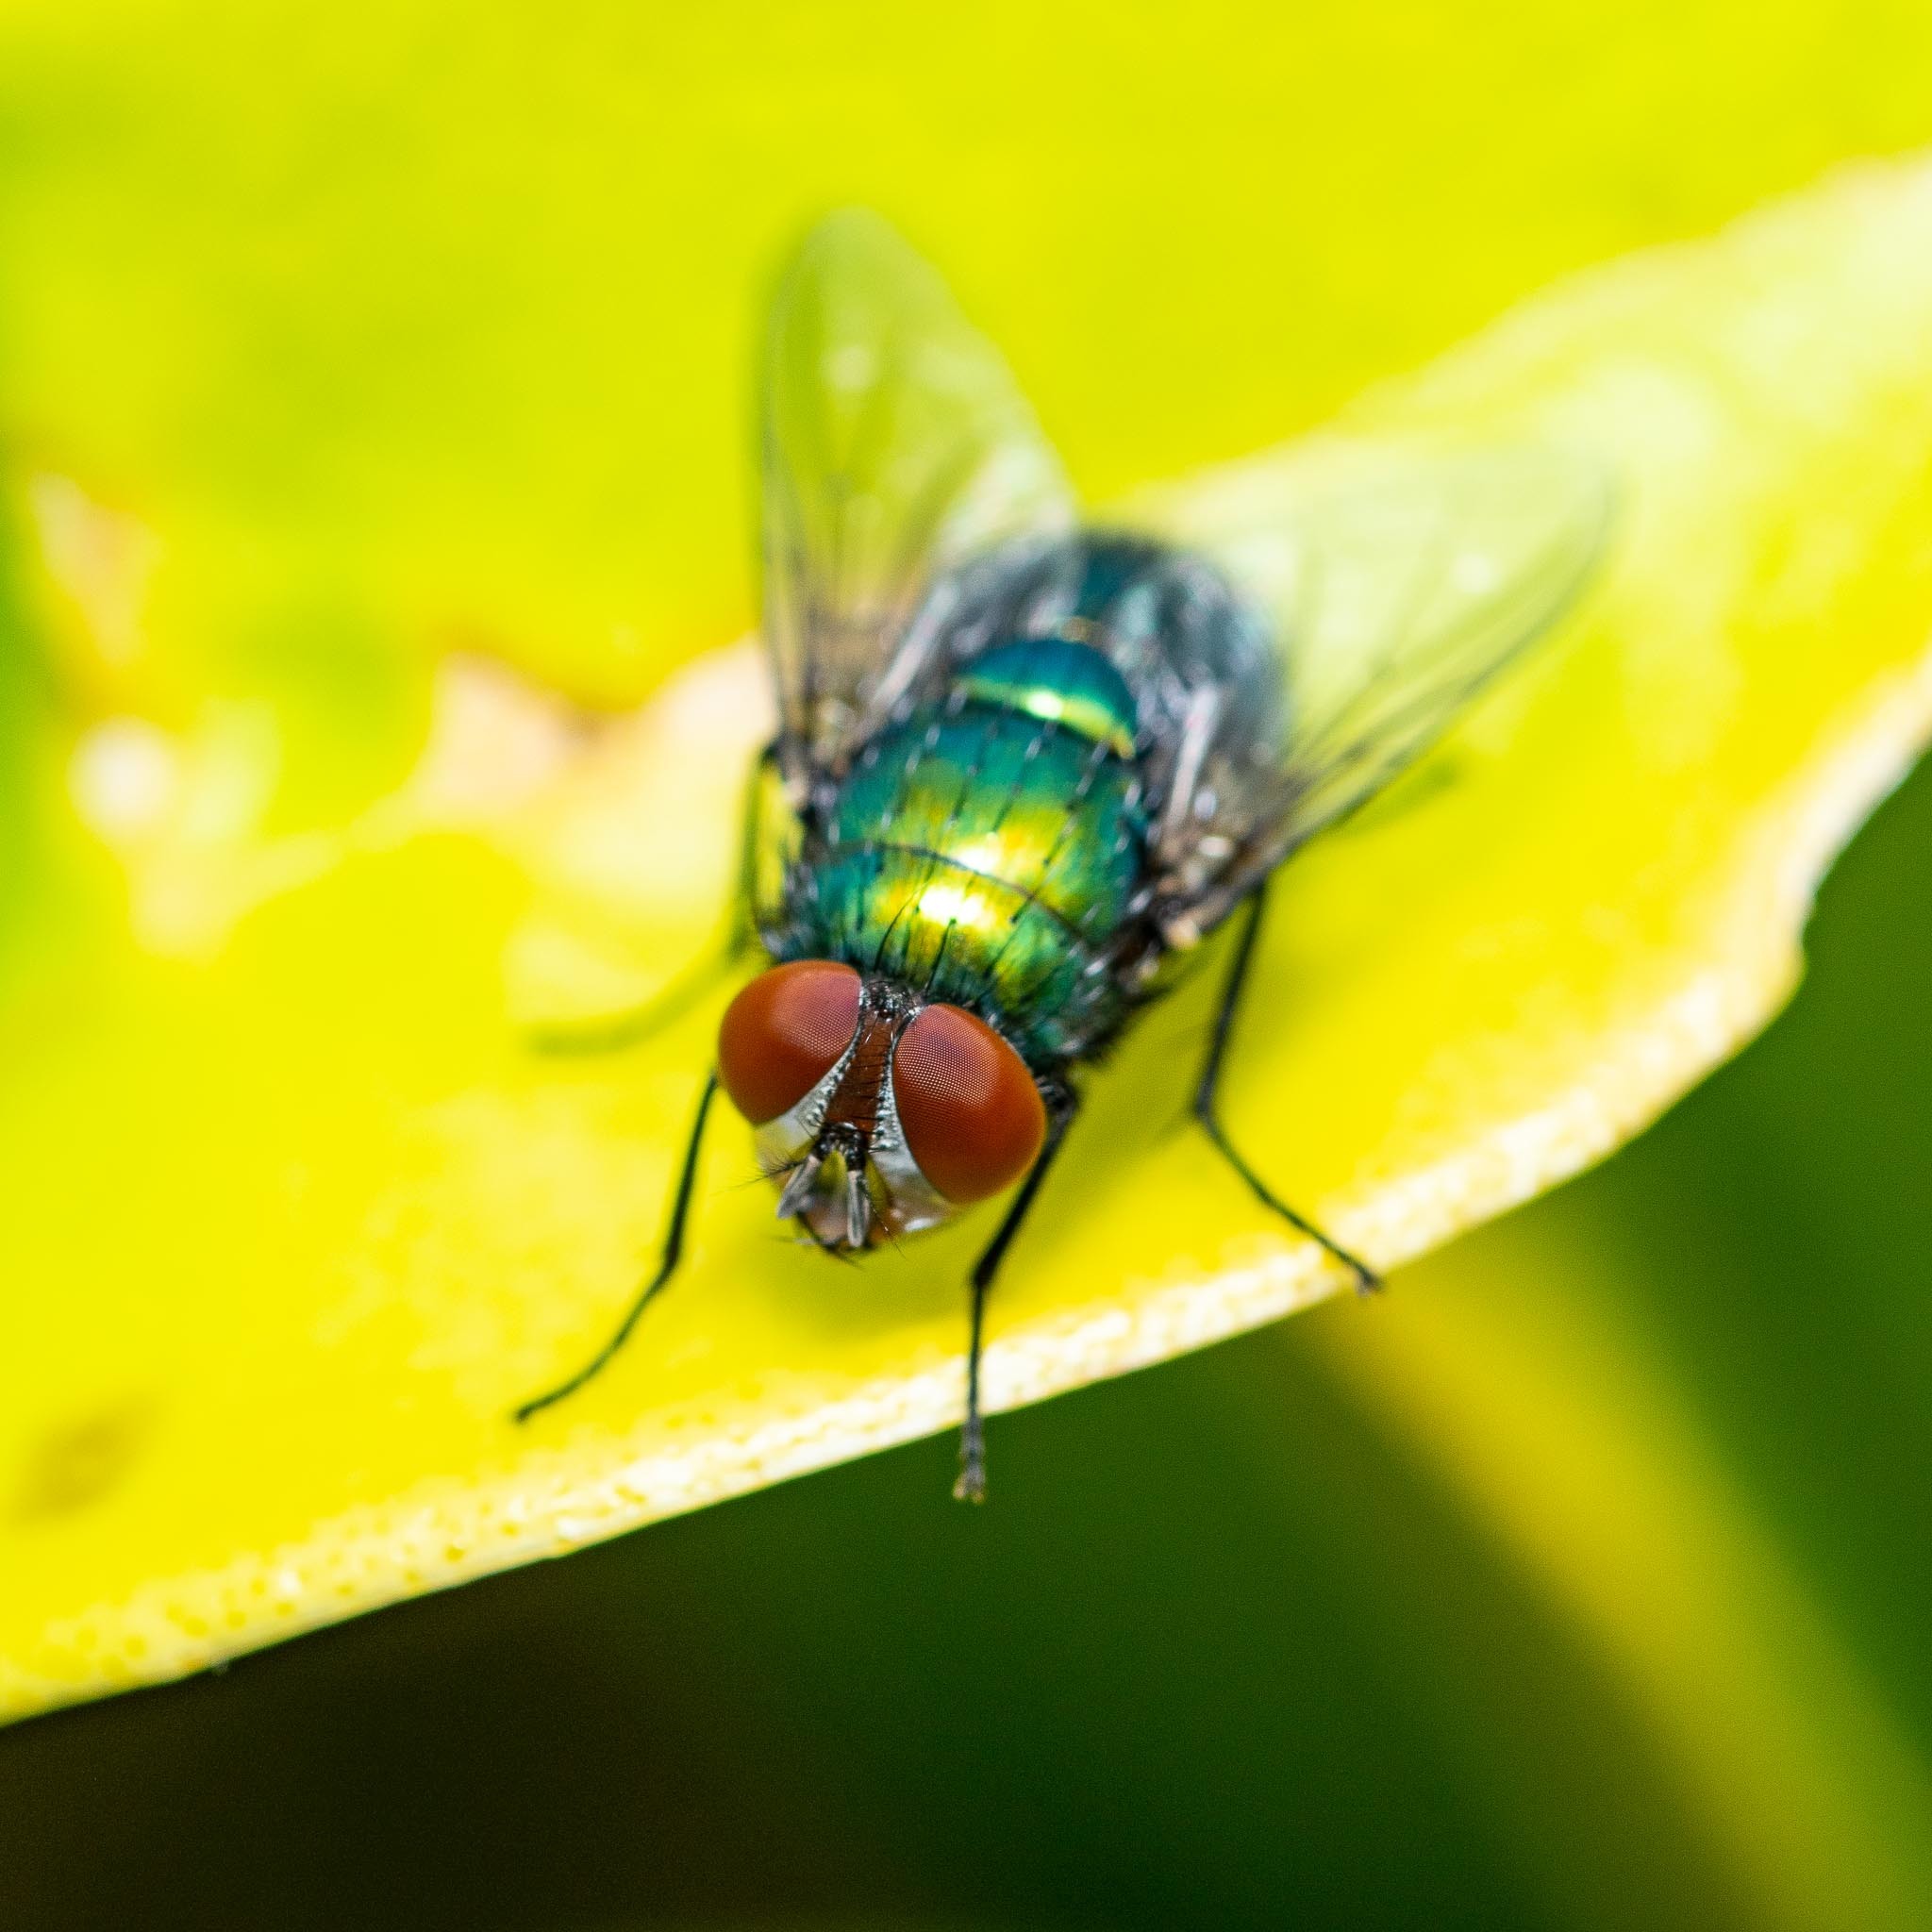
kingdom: Animalia
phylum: Arthropoda
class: Insecta
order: Diptera
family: Calliphoridae
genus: Lucilia
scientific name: Lucilia
